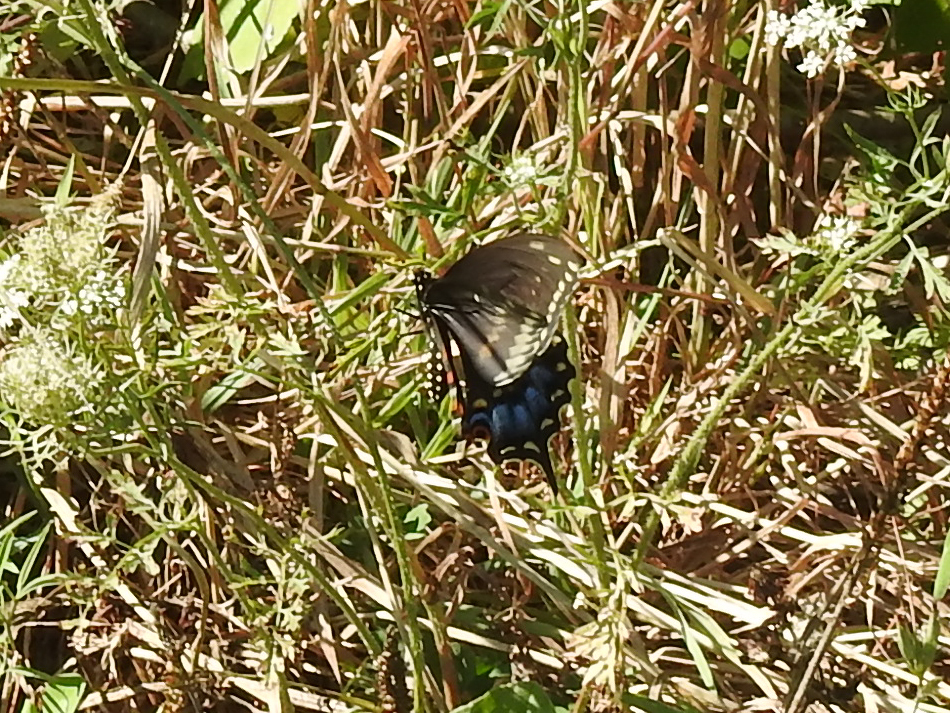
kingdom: Animalia
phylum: Arthropoda
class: Insecta
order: Lepidoptera
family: Papilionidae
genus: Papilio
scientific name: Papilio polyxenes
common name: Black swallowtail
